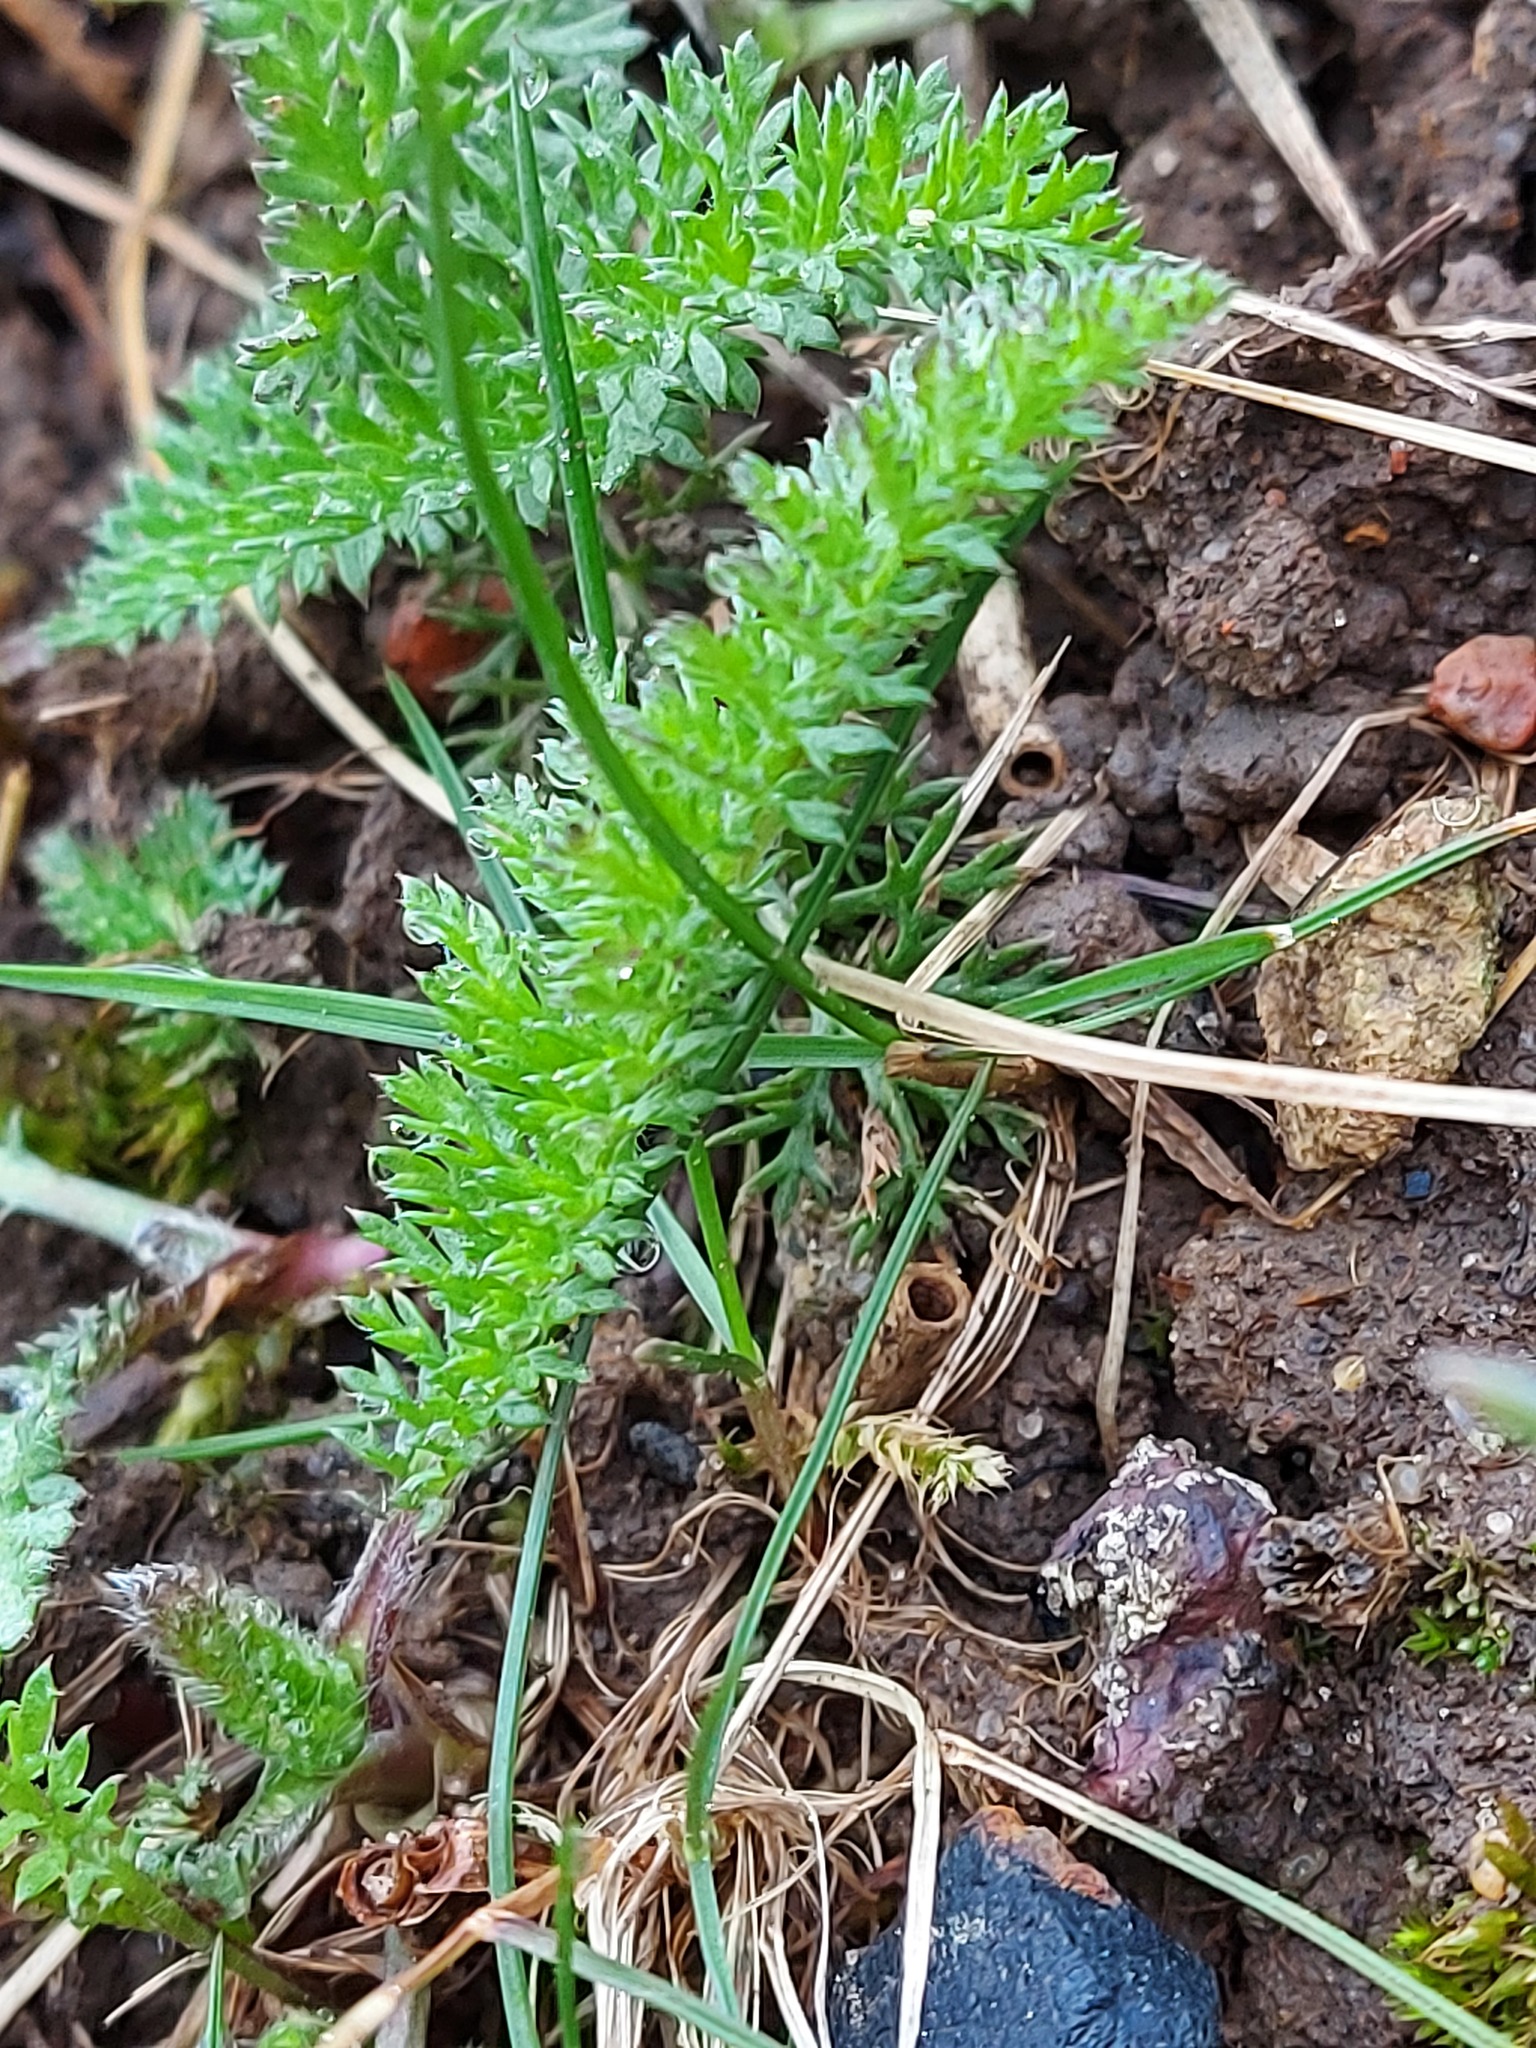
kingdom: Plantae
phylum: Tracheophyta
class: Magnoliopsida
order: Asterales
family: Asteraceae
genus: Achillea
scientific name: Achillea millefolium
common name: Yarrow
